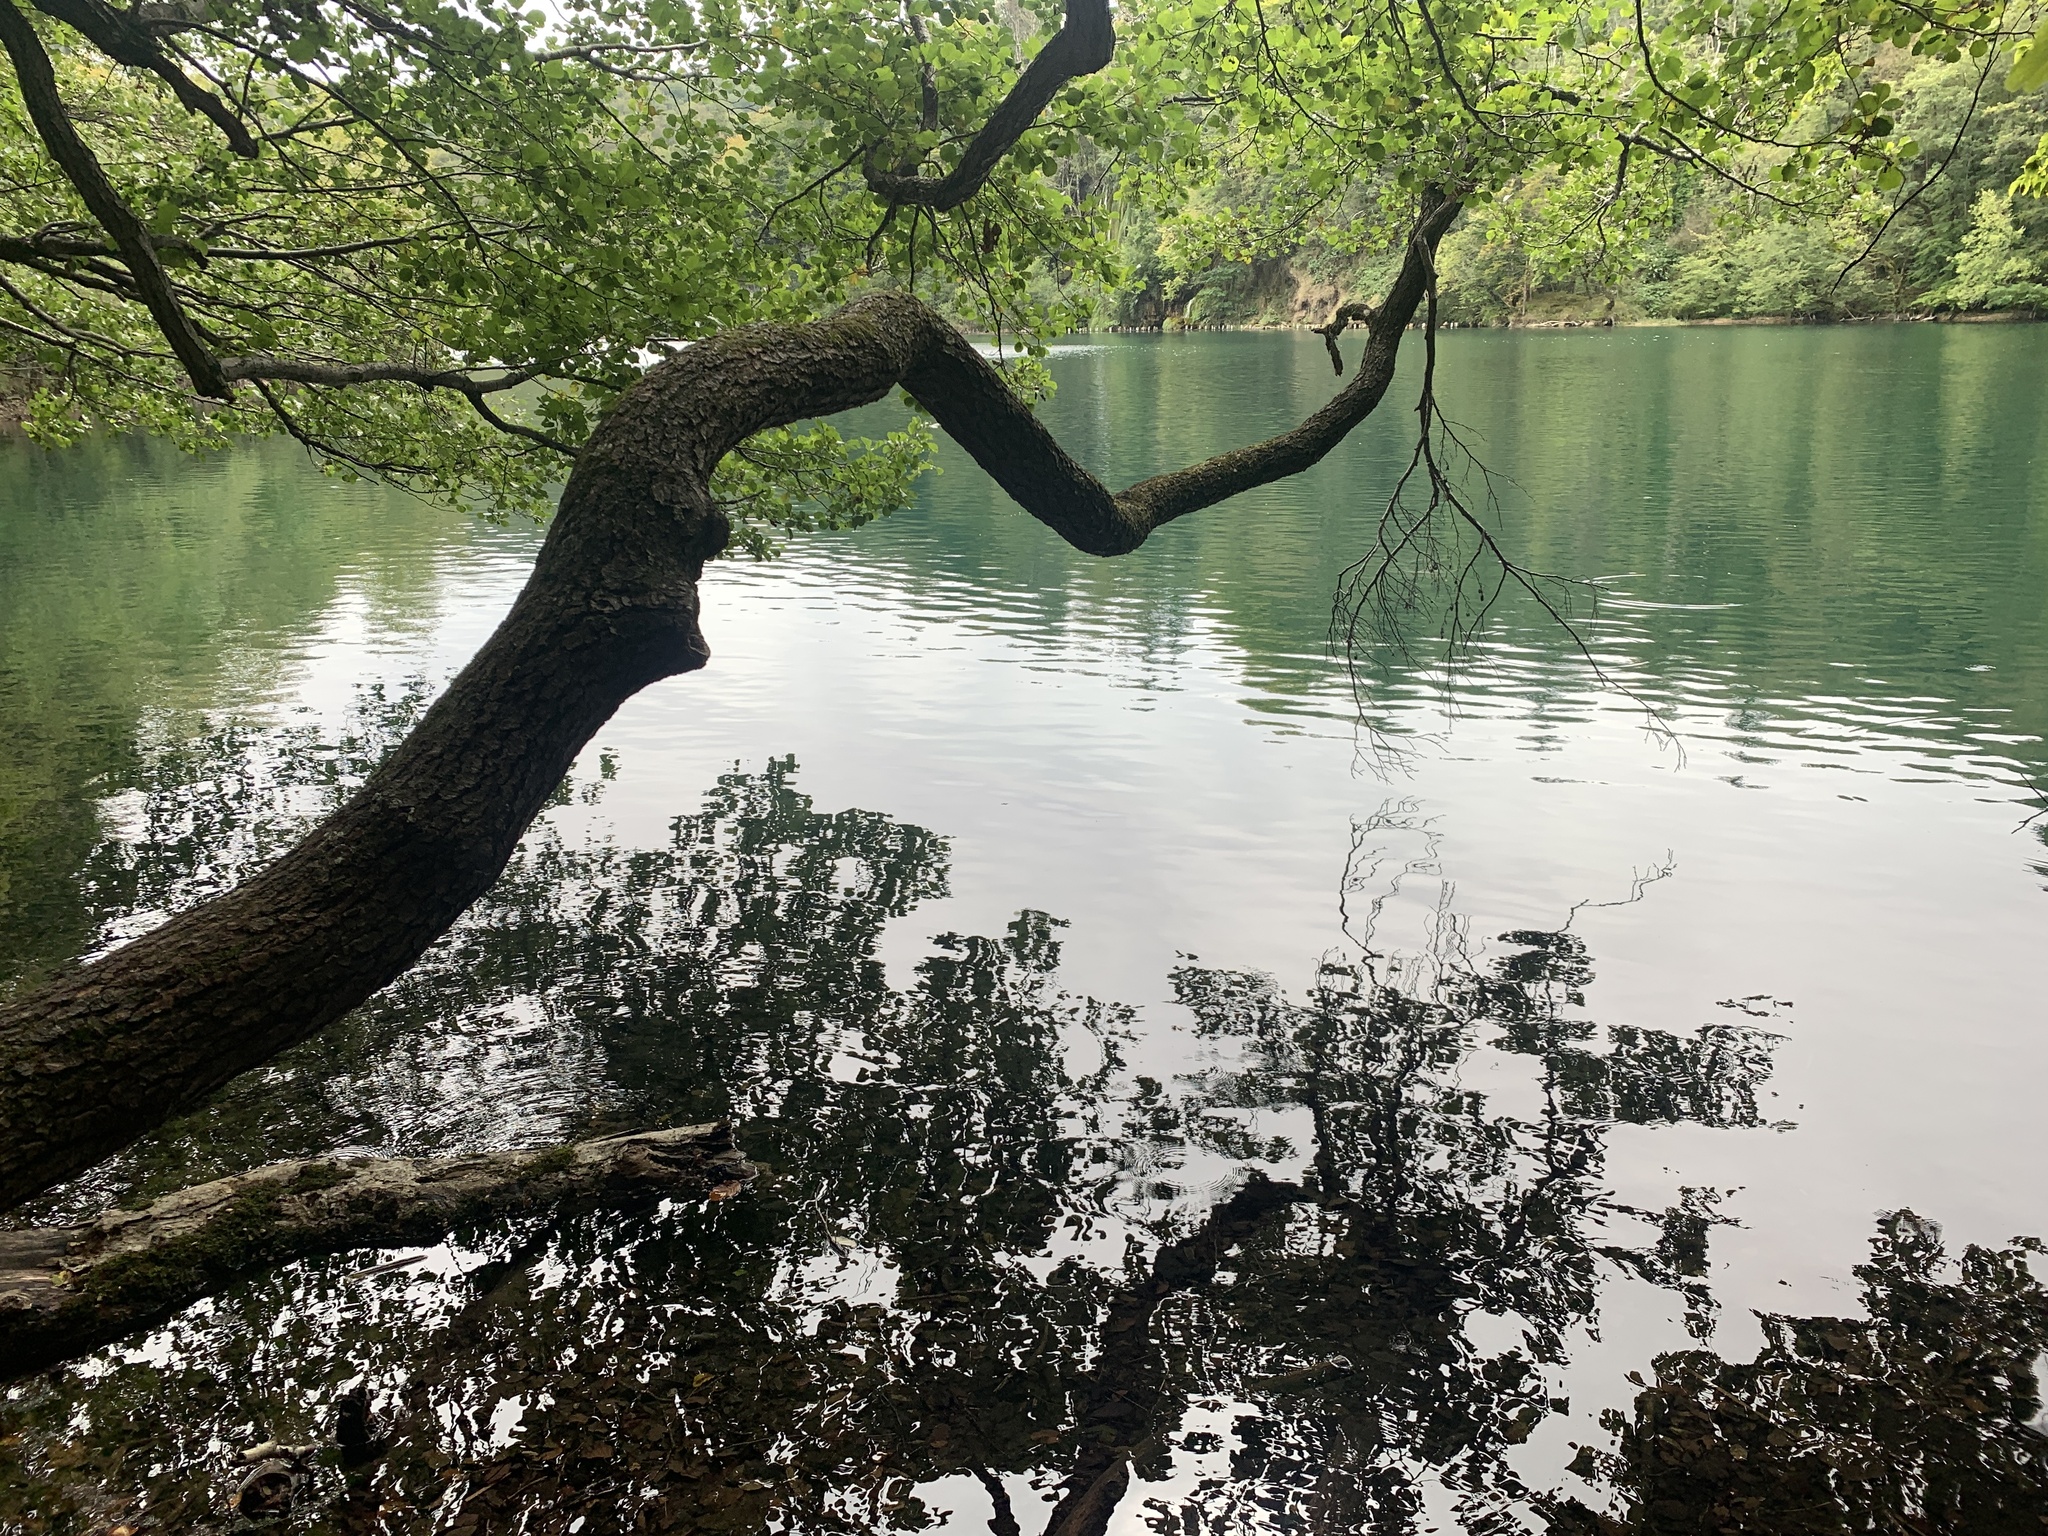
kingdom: Plantae
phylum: Tracheophyta
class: Magnoliopsida
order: Fagales
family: Betulaceae
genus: Alnus
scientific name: Alnus glutinosa
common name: Black alder
